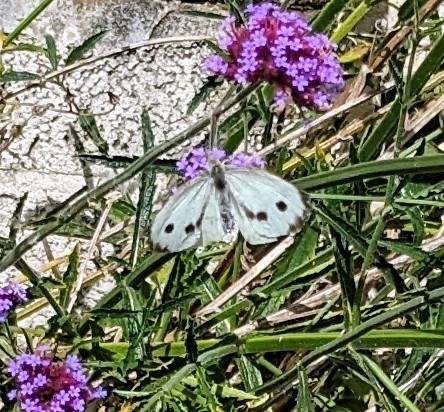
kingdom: Animalia
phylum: Arthropoda
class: Insecta
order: Lepidoptera
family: Pieridae
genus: Pieris
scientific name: Pieris brassicae
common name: Large white
